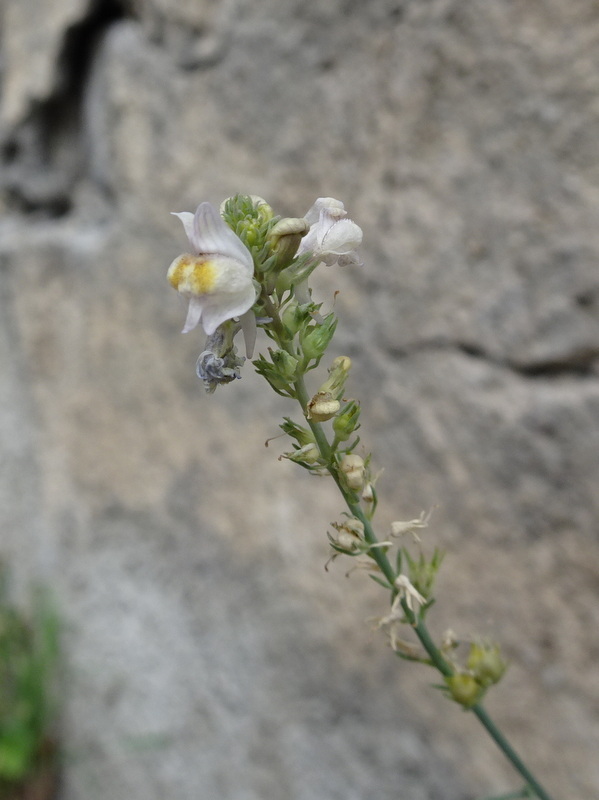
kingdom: Plantae
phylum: Tracheophyta
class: Magnoliopsida
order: Lamiales
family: Plantaginaceae
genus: Linaria
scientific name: Linaria repens
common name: Pale toadflax
